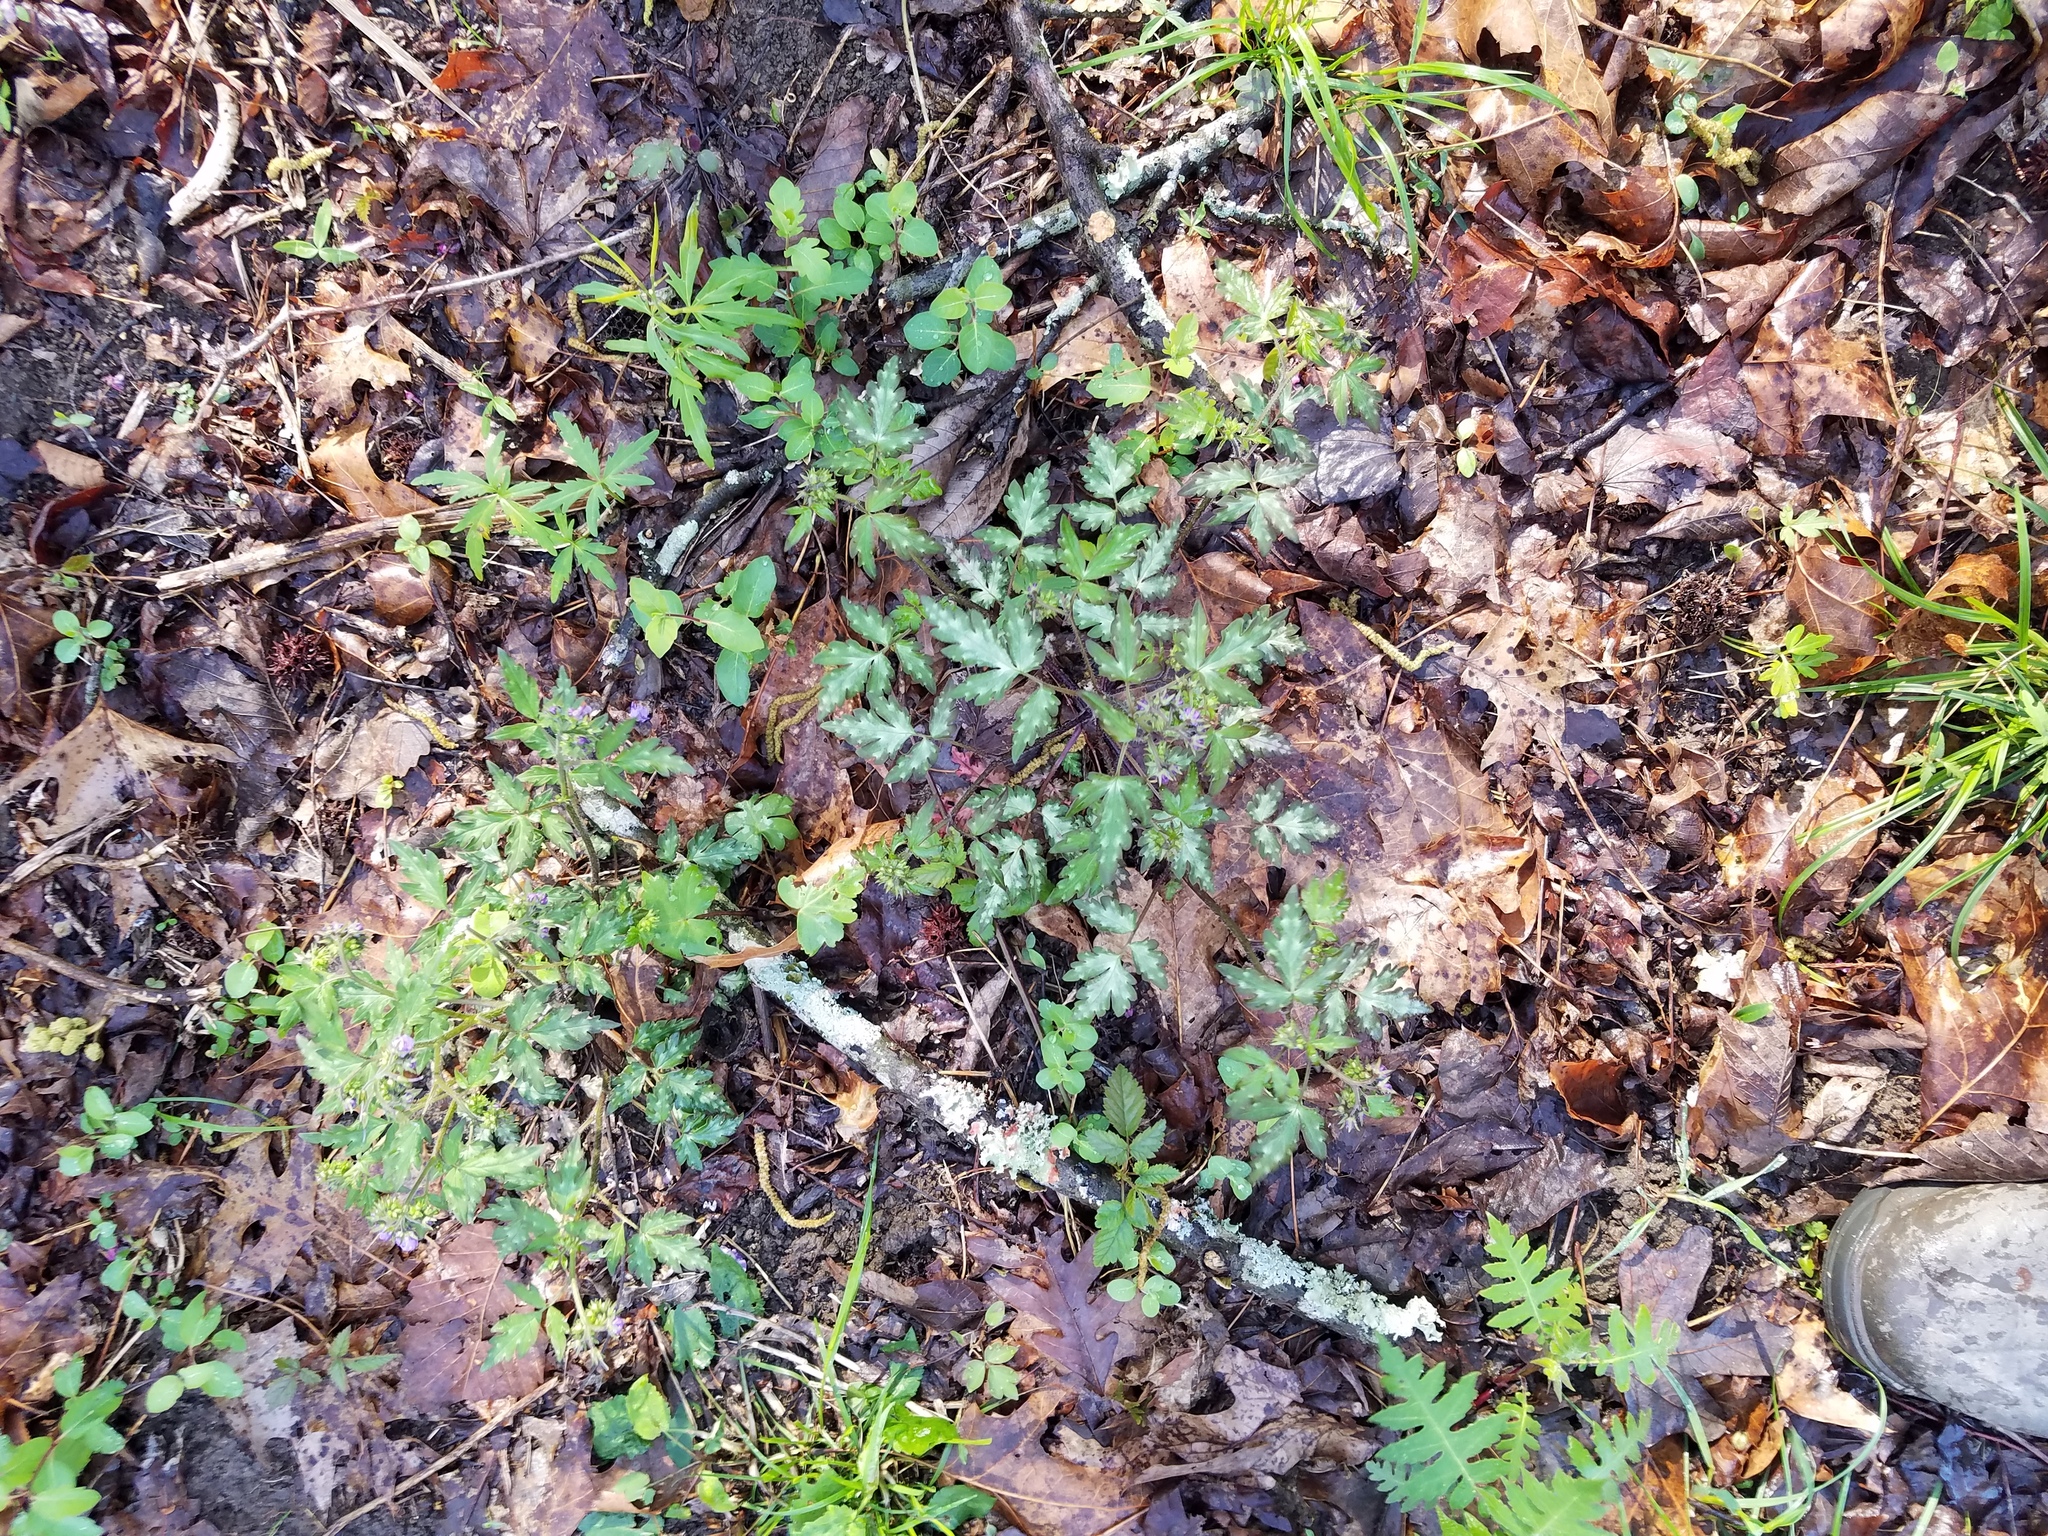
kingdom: Plantae
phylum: Tracheophyta
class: Magnoliopsida
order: Boraginales
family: Hydrophyllaceae
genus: Phacelia
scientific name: Phacelia bipinnatifida
